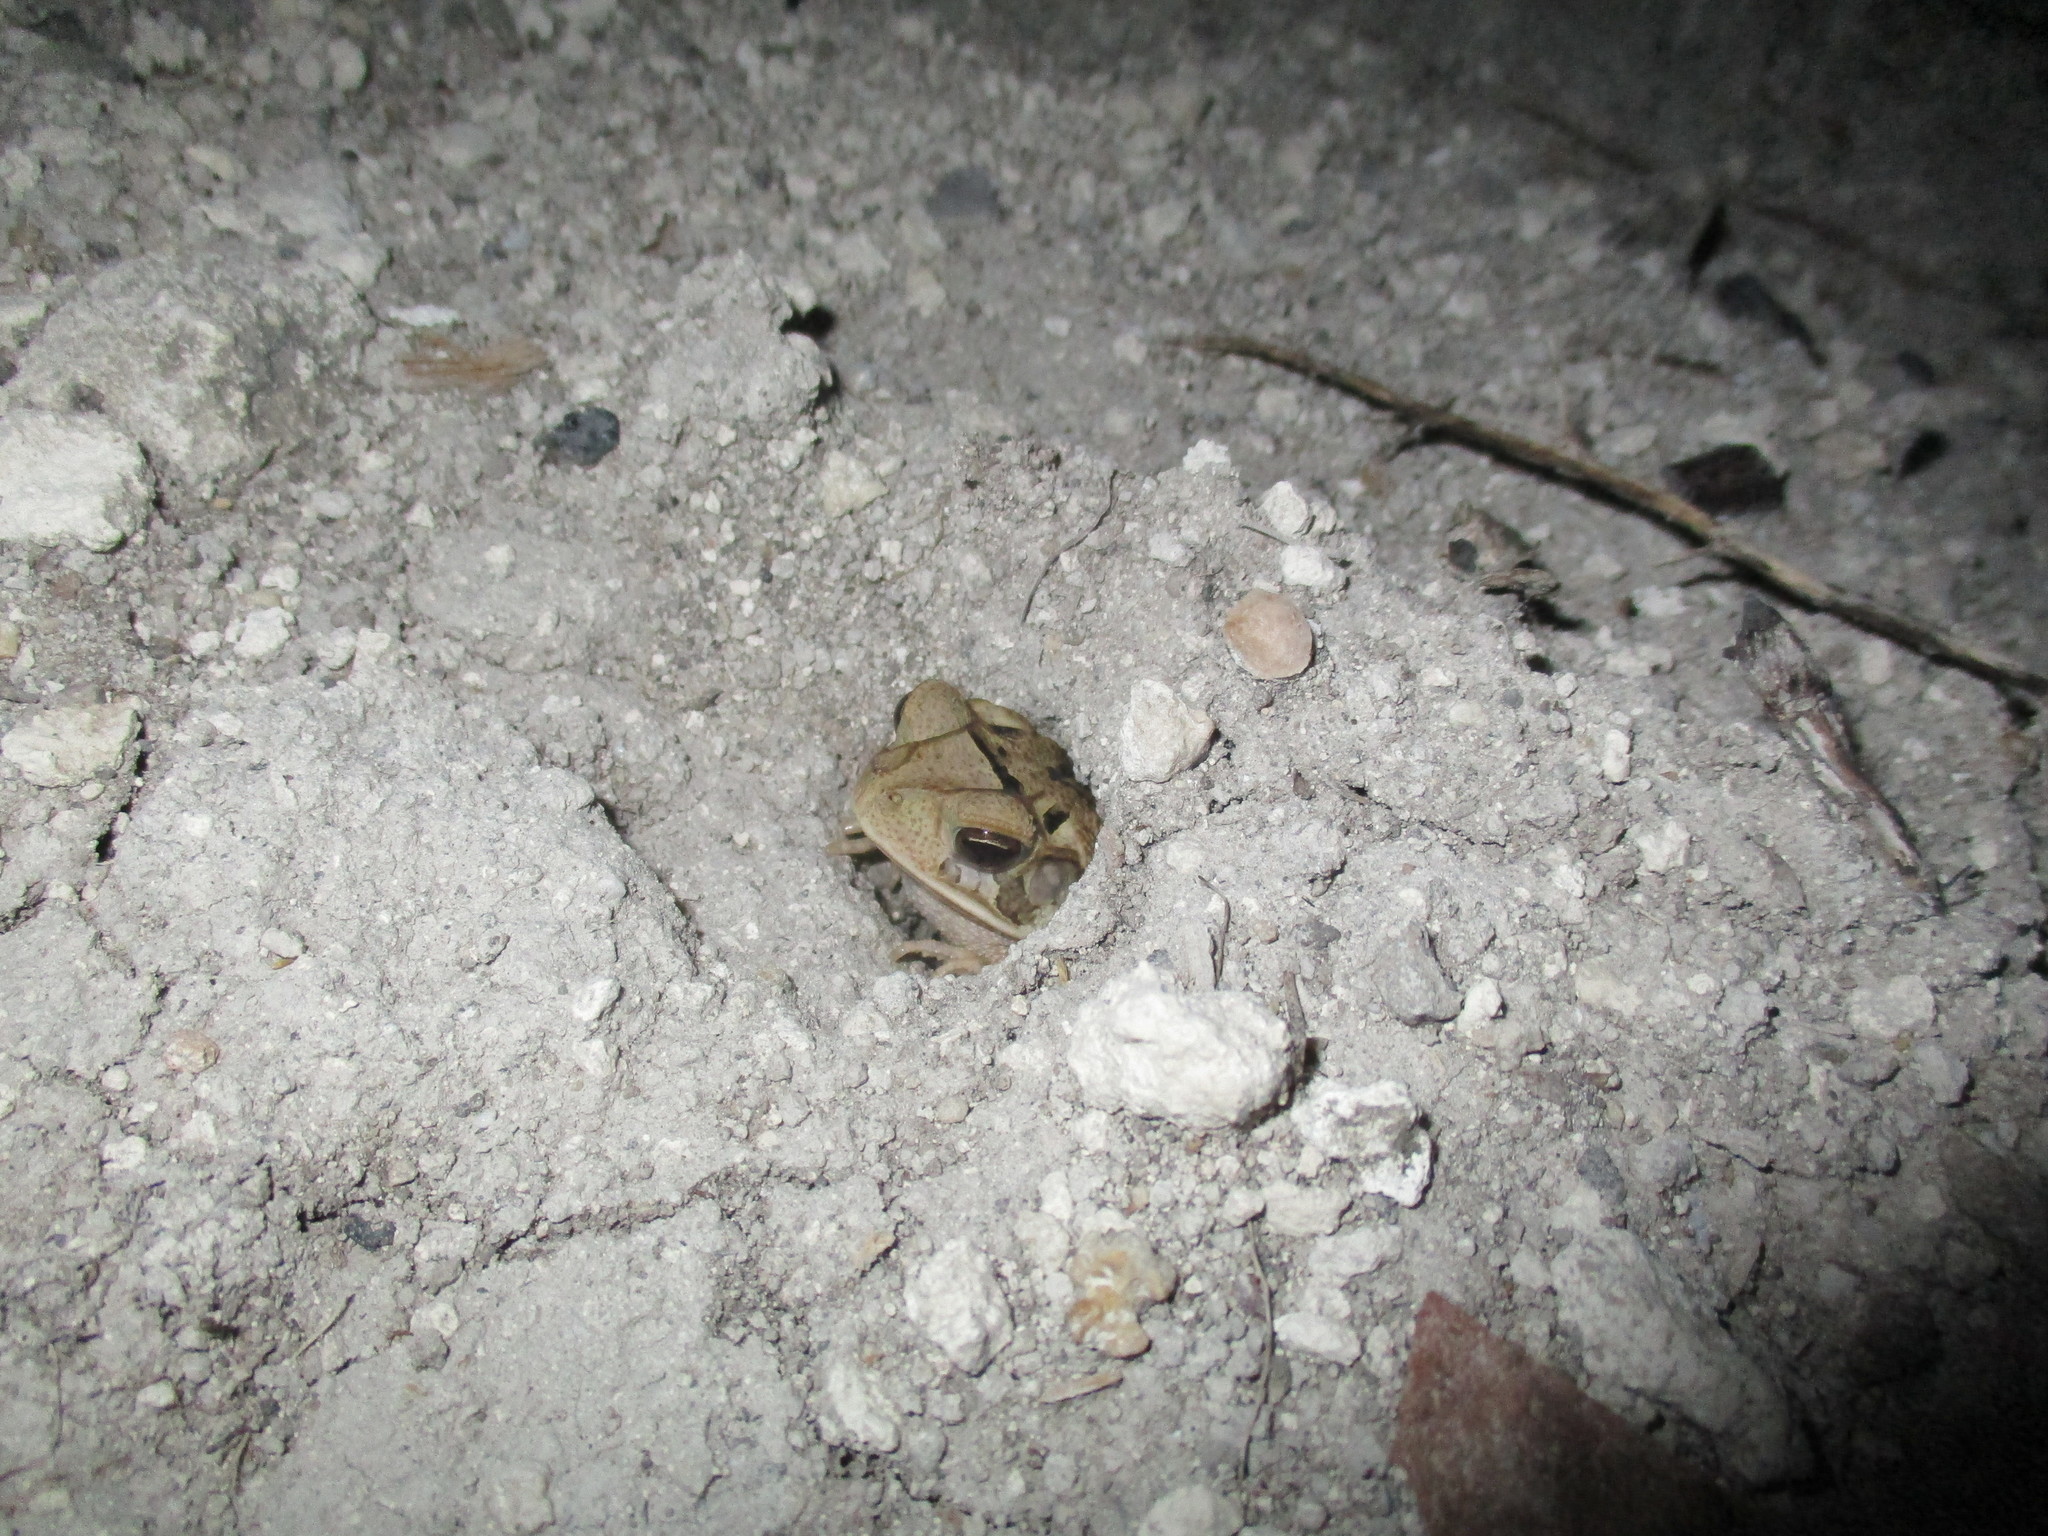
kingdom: Animalia
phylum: Chordata
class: Amphibia
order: Anura
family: Bufonidae
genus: Incilius
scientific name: Incilius valliceps
